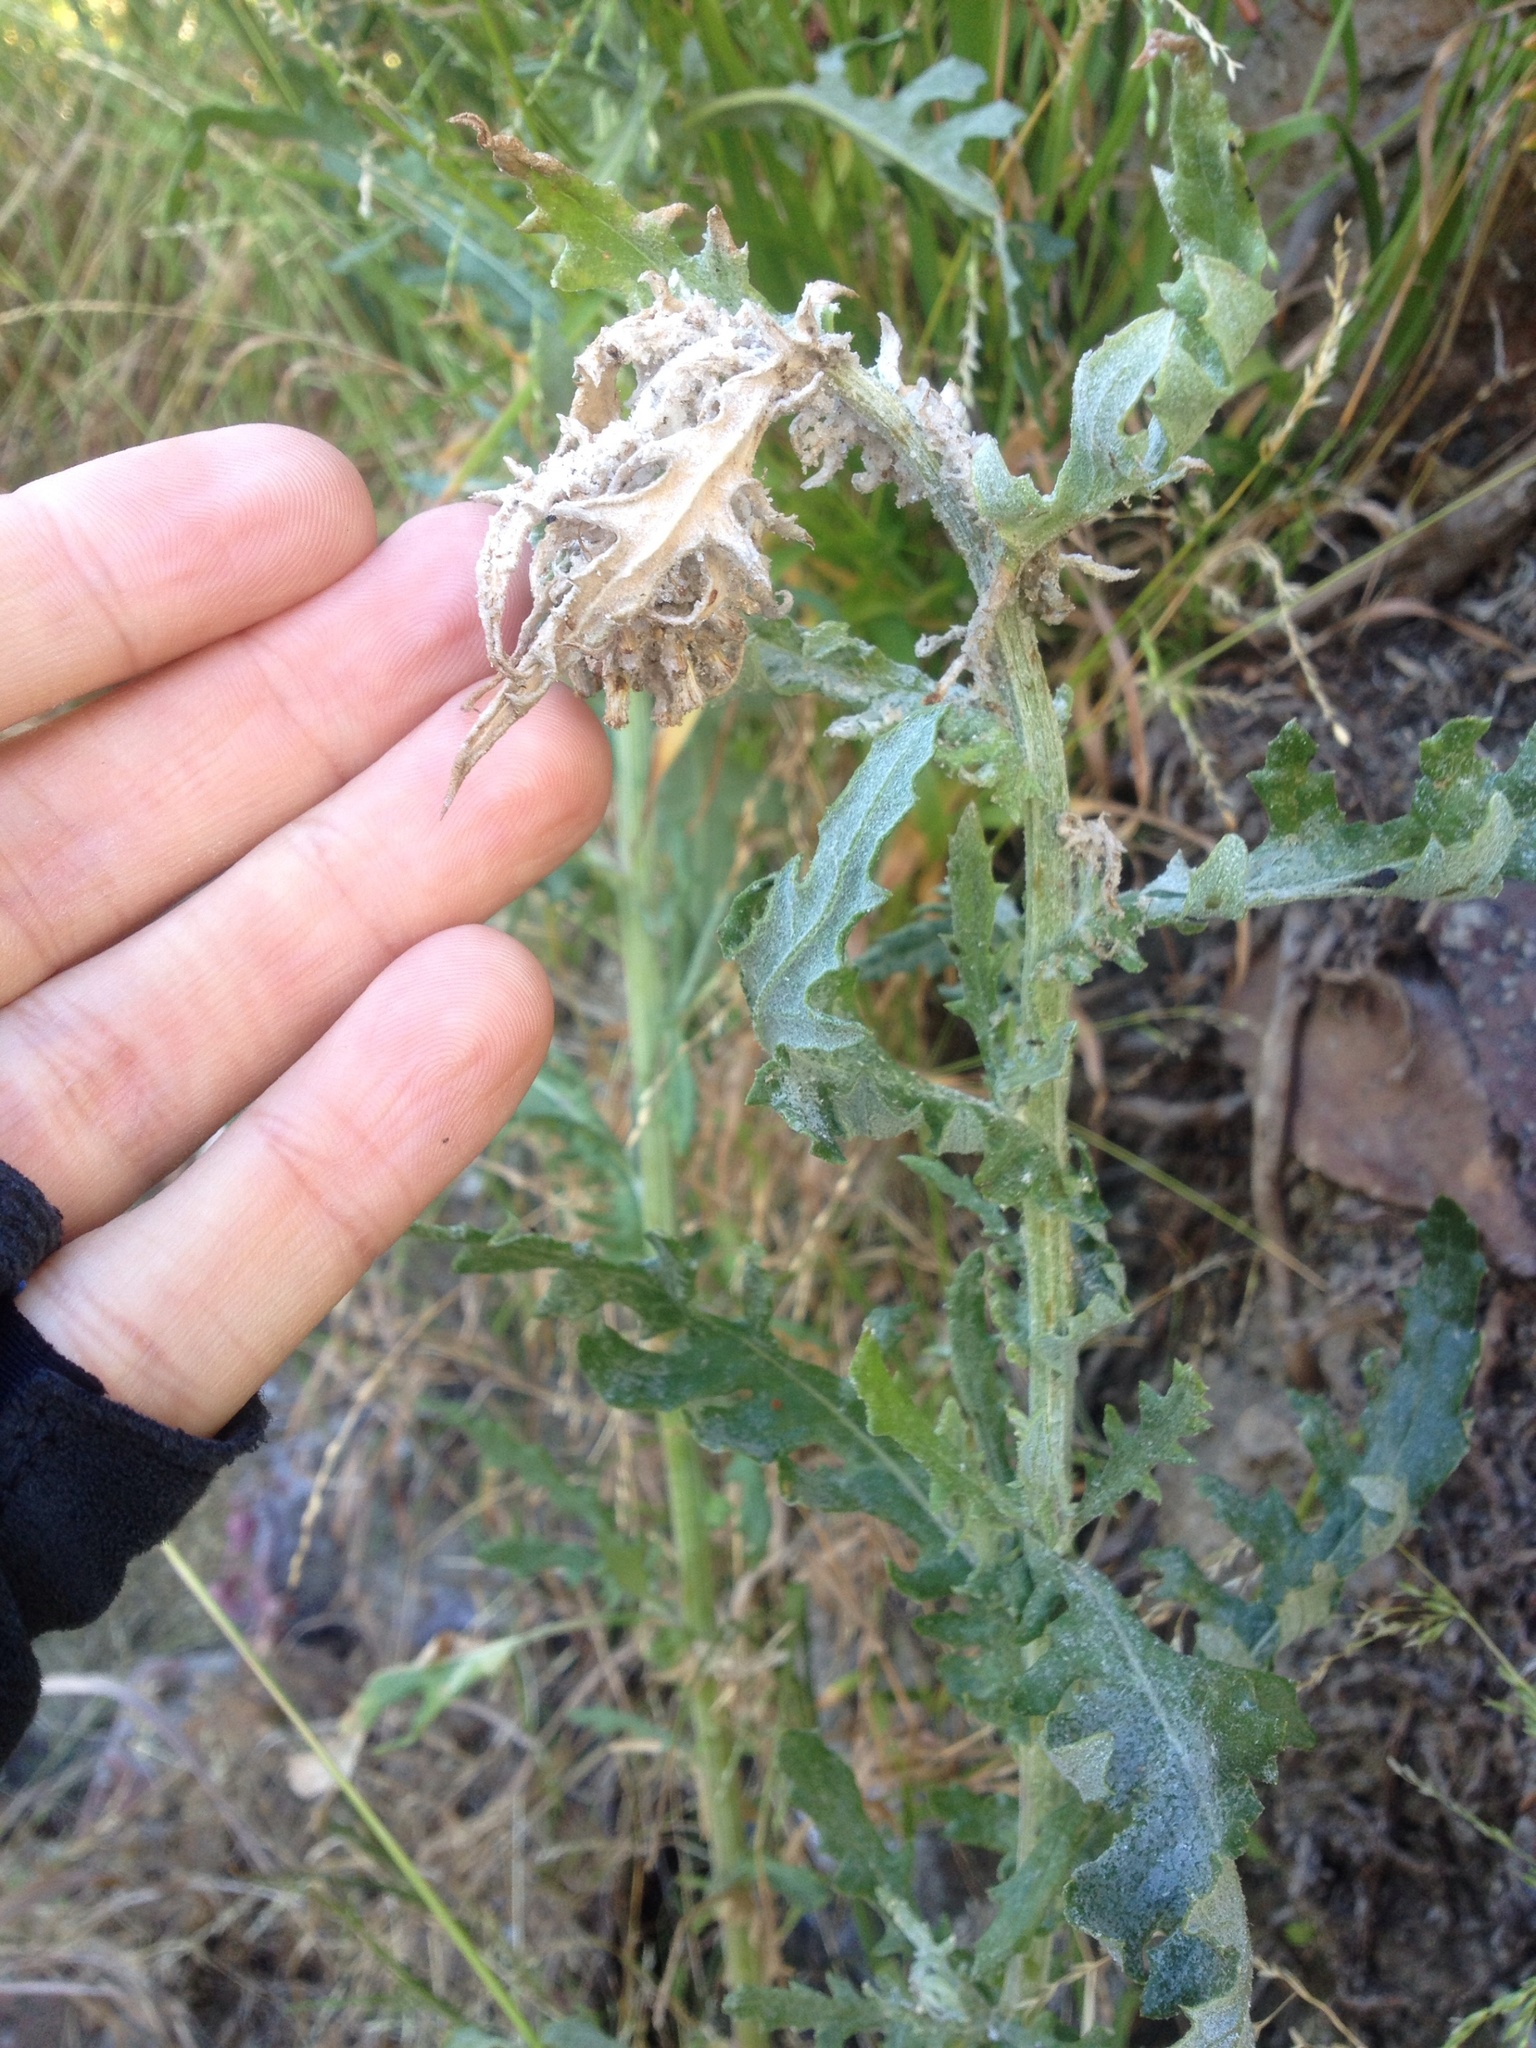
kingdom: Plantae
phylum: Tracheophyta
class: Magnoliopsida
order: Asterales
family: Asteraceae
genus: Senecio
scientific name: Senecio glomeratus
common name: Cutleaf burnweed
